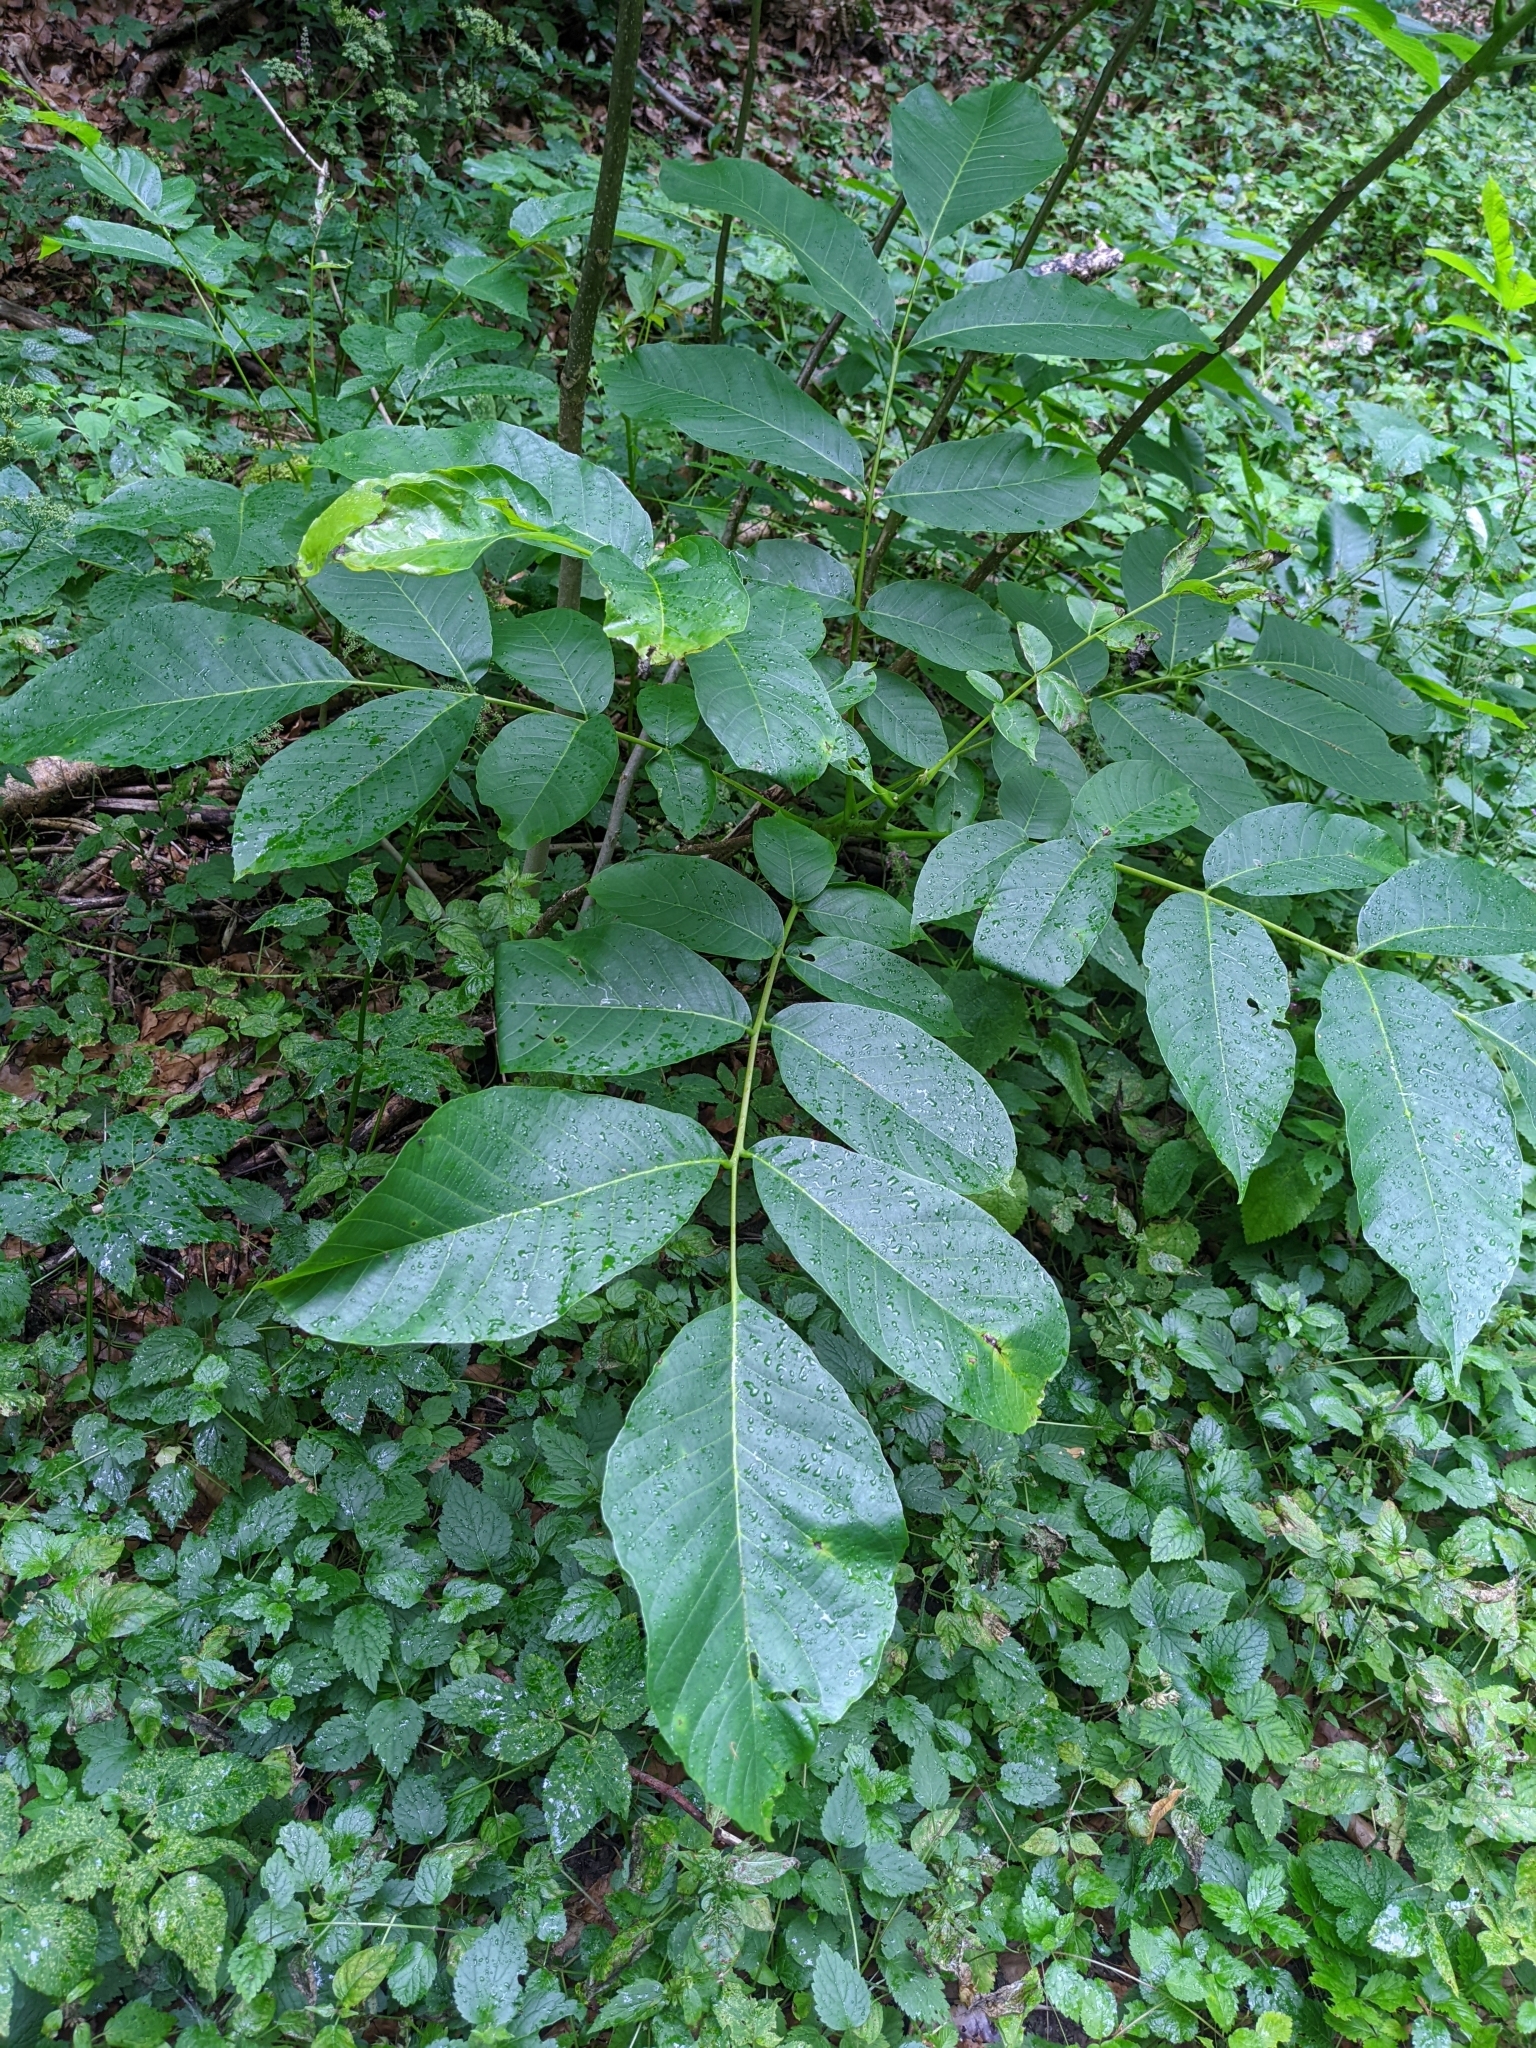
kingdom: Plantae
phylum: Tracheophyta
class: Magnoliopsida
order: Fagales
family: Juglandaceae
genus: Juglans
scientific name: Juglans regia
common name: Walnut
